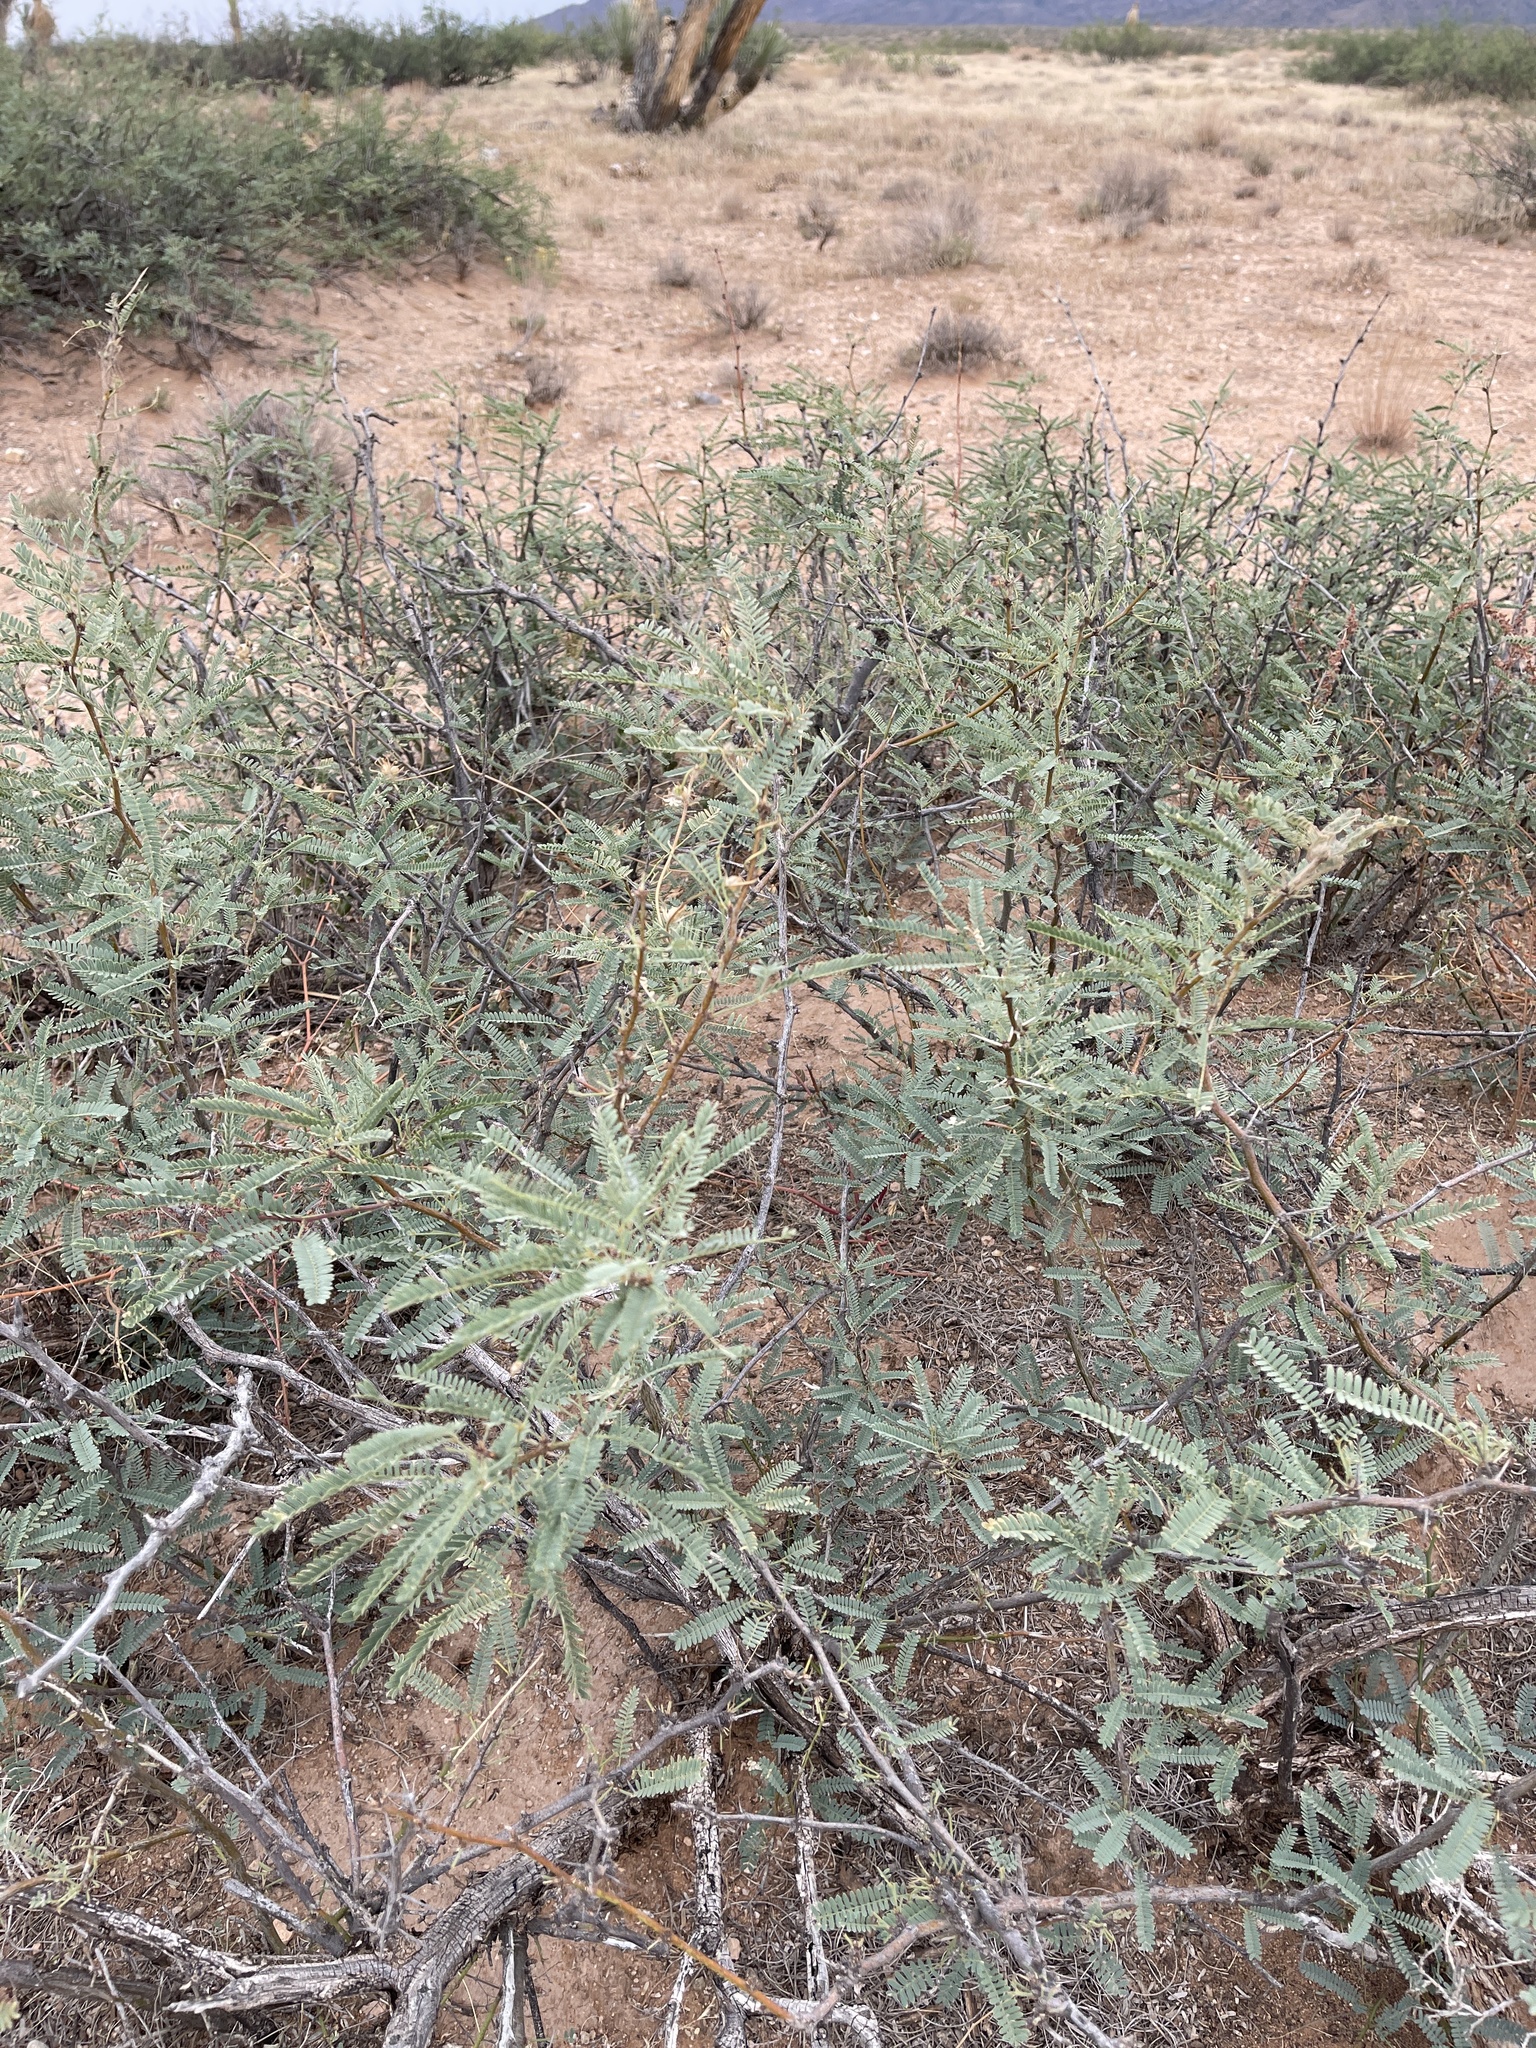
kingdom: Plantae
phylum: Tracheophyta
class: Magnoliopsida
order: Fabales
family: Fabaceae
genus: Prosopis
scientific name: Prosopis velutina
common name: Velvet mesquite
